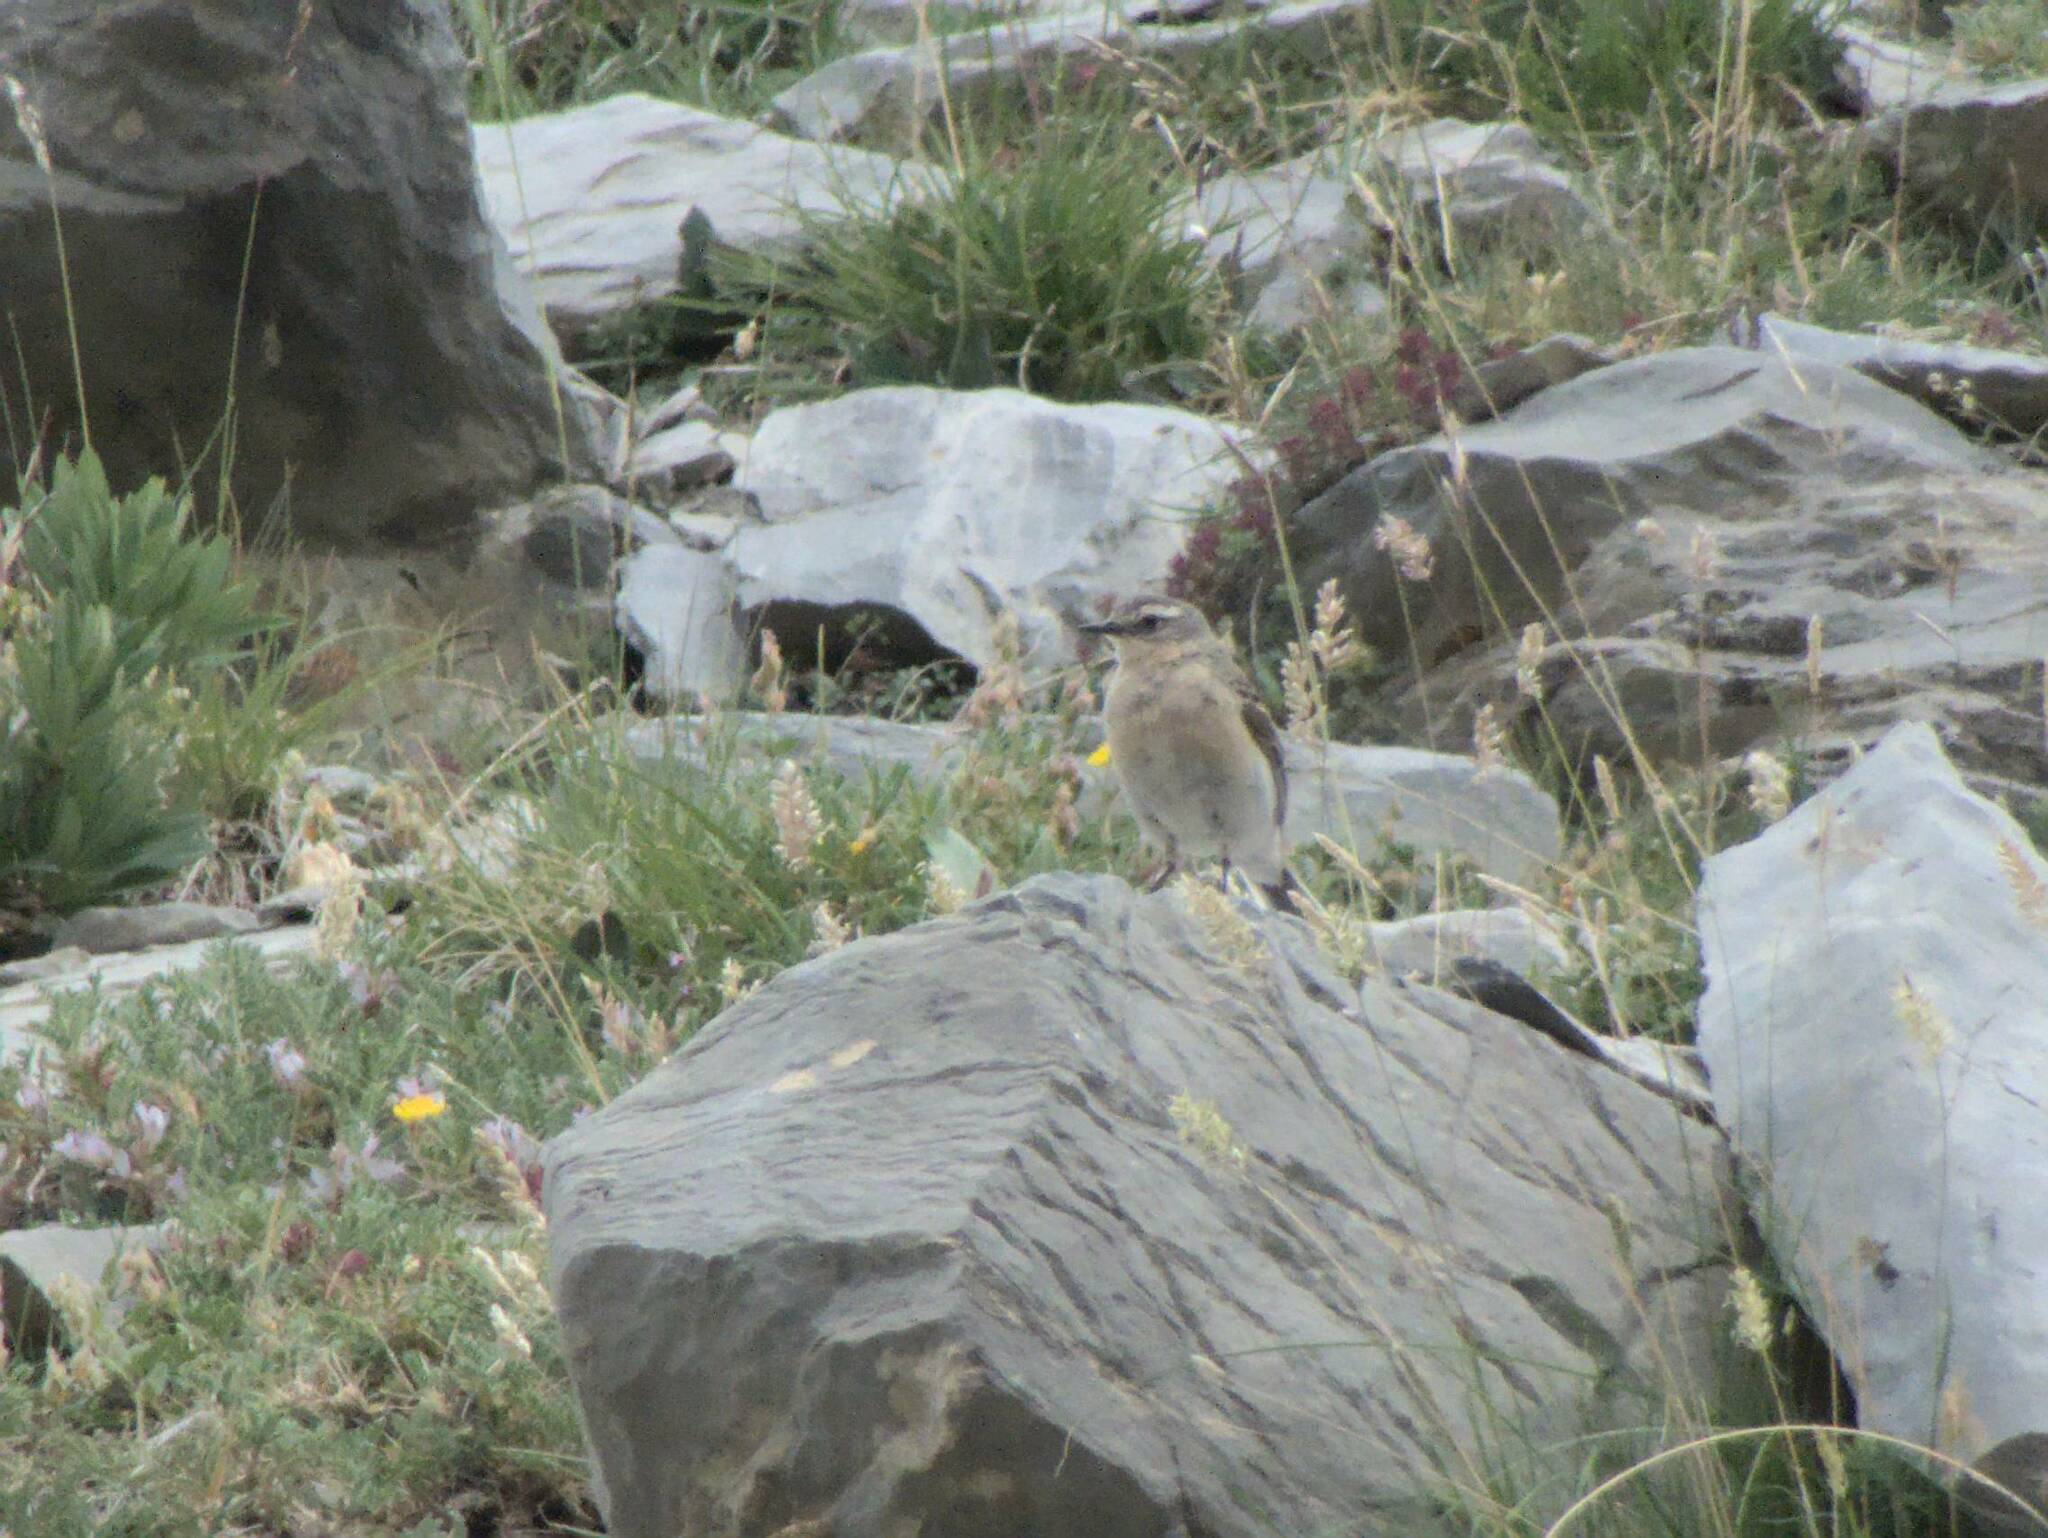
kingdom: Animalia
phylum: Chordata
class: Aves
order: Passeriformes
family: Muscicapidae
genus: Oenanthe
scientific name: Oenanthe oenanthe
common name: Northern wheatear
